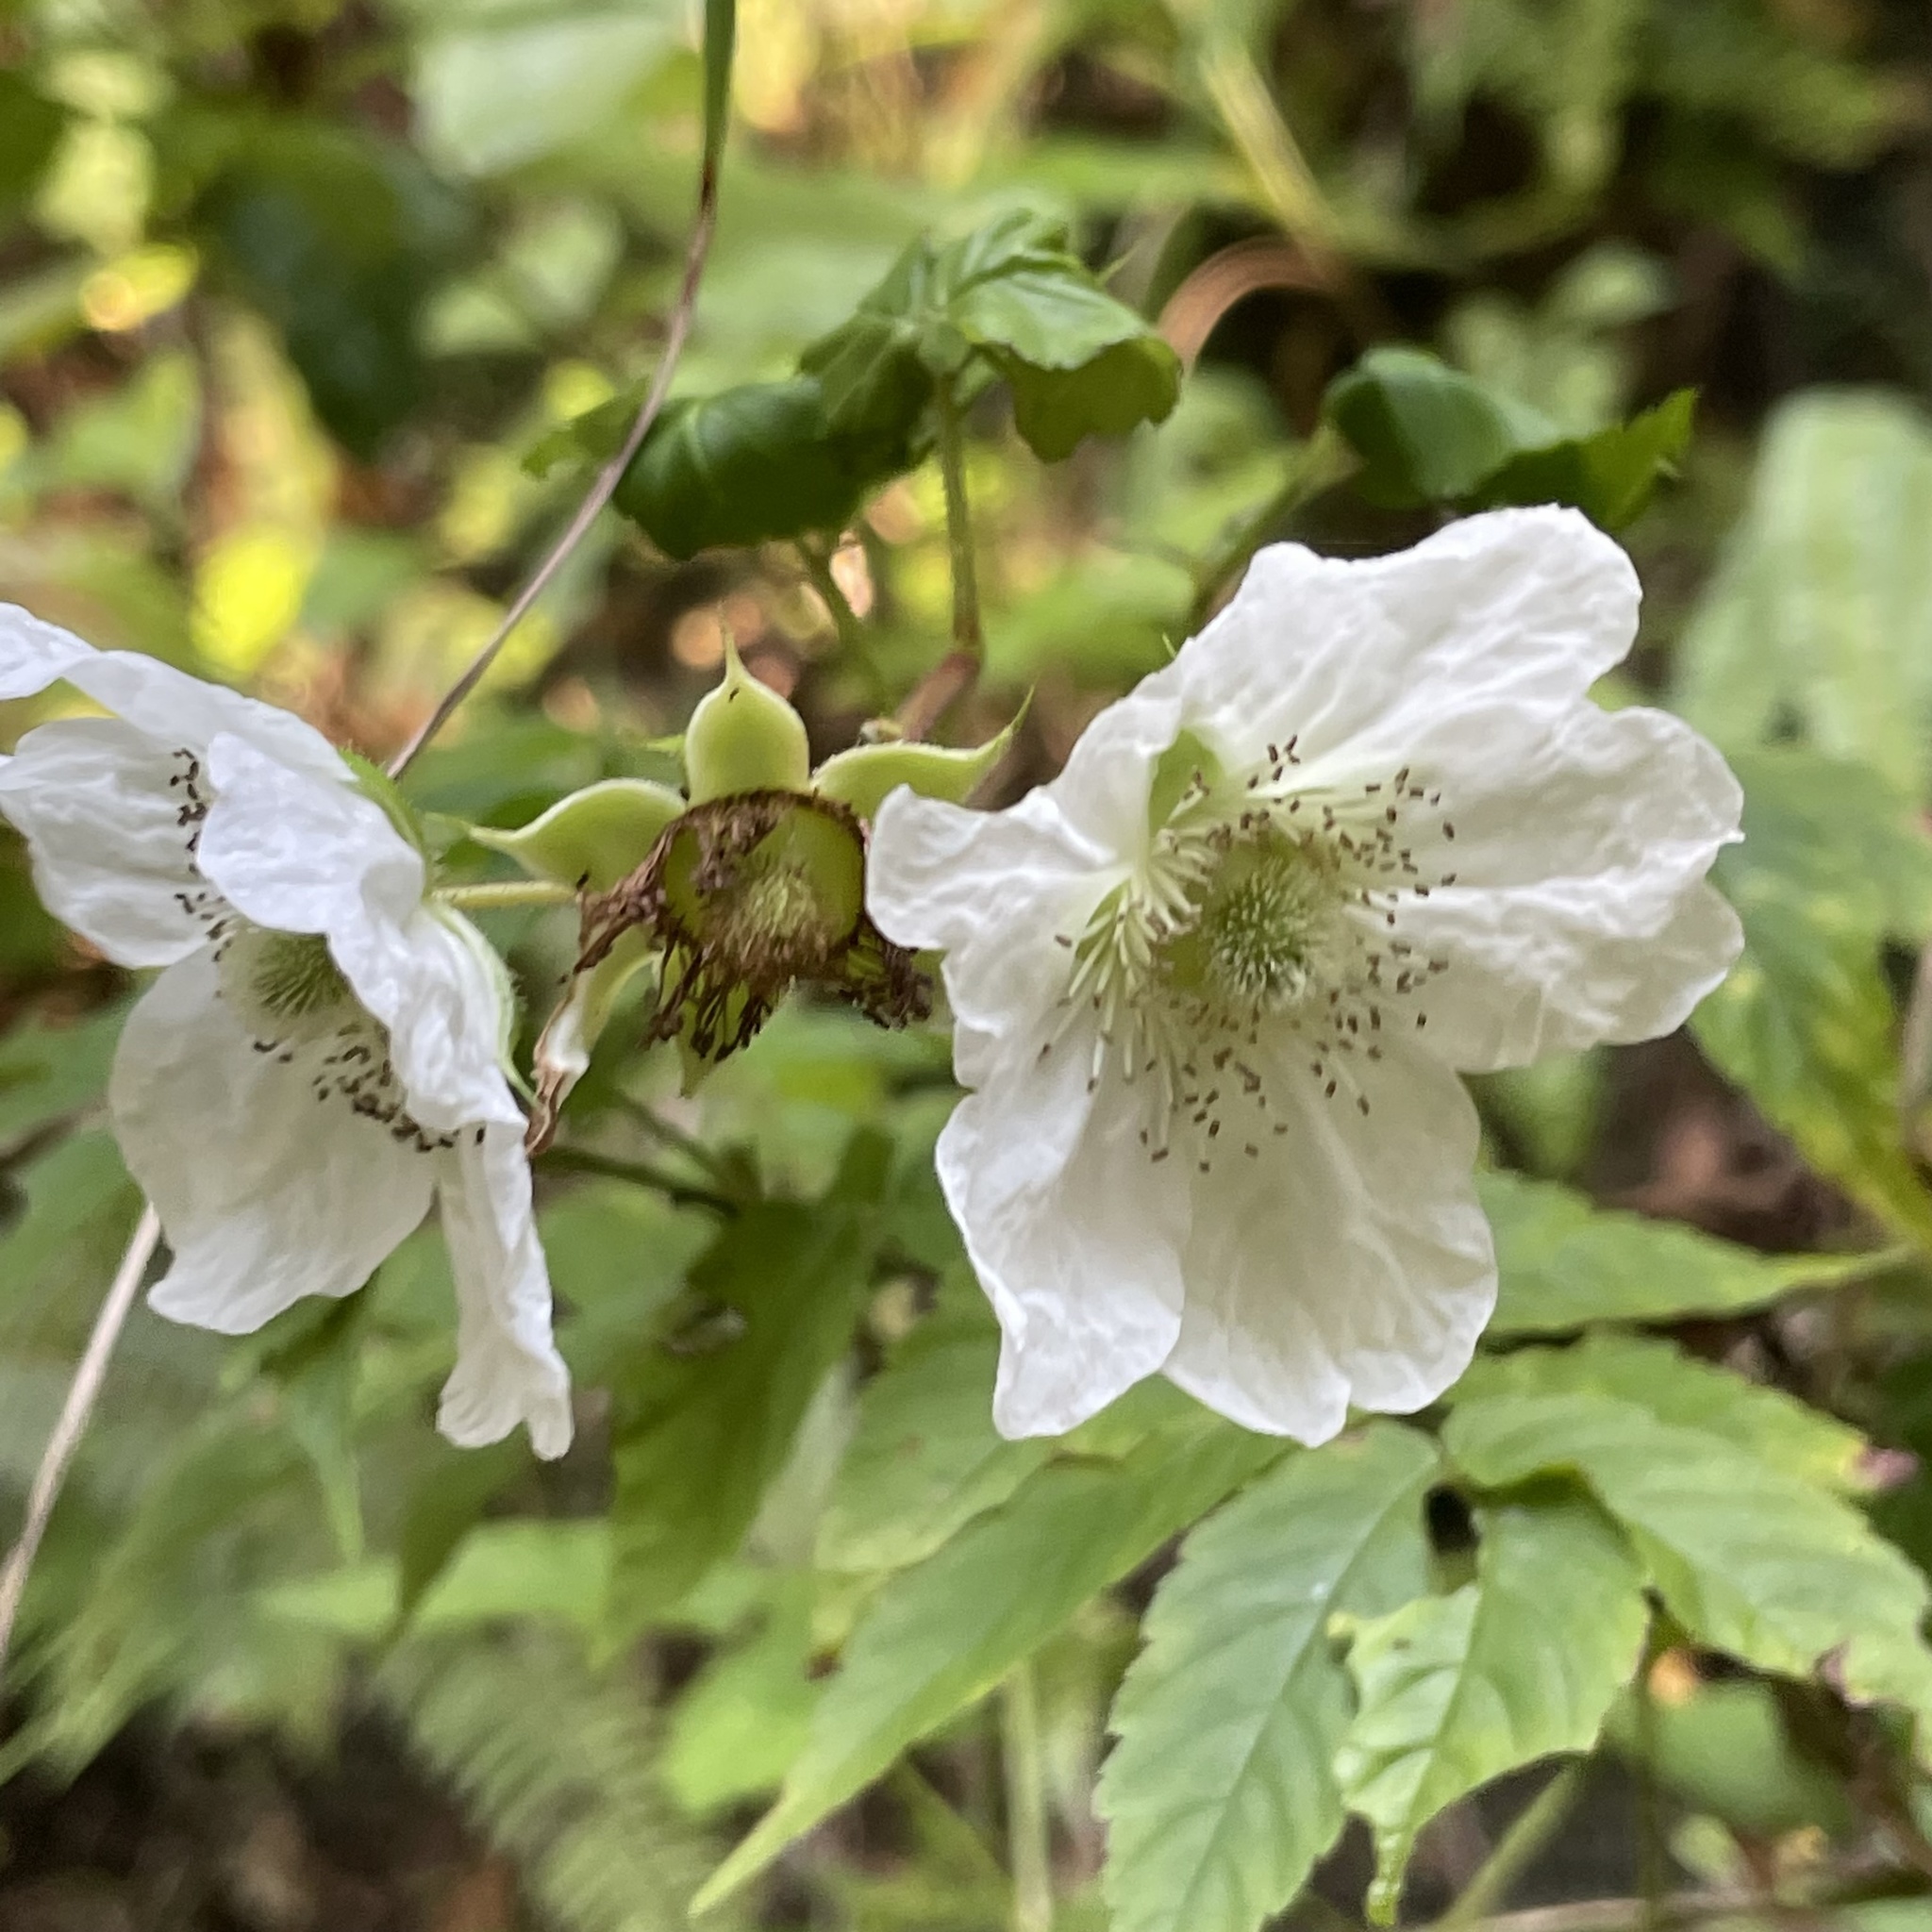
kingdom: Plantae
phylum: Tracheophyta
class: Magnoliopsida
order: Rosales
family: Rosaceae
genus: Rubus
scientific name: Rubus okinawensis
